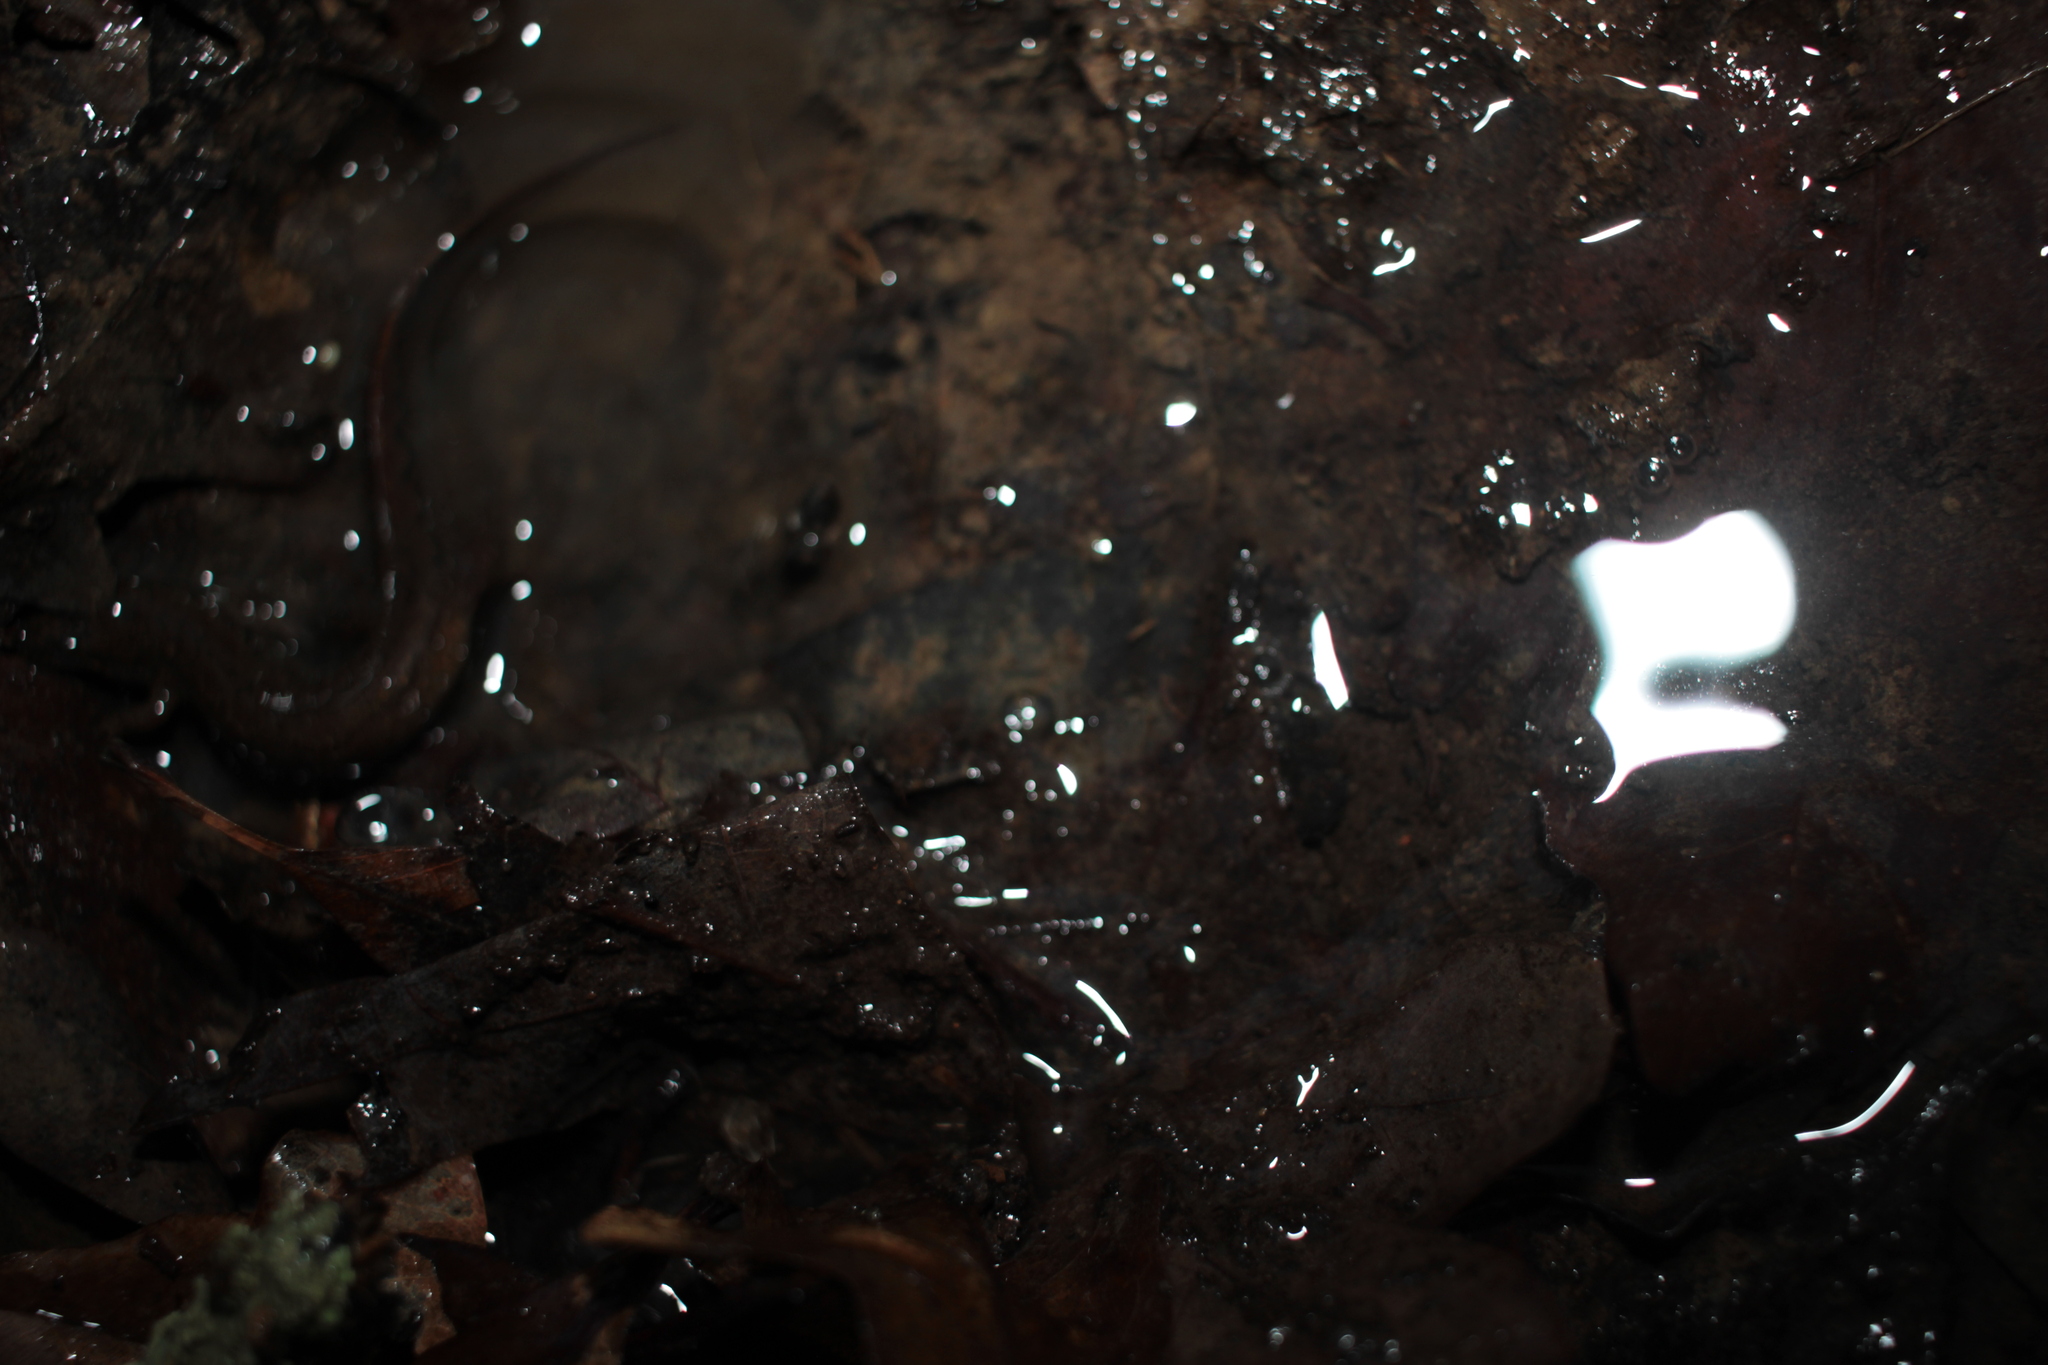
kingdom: Animalia
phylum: Chordata
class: Amphibia
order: Caudata
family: Plethodontidae
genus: Desmognathus
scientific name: Desmognathus fuscus
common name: Northern dusky salamander
